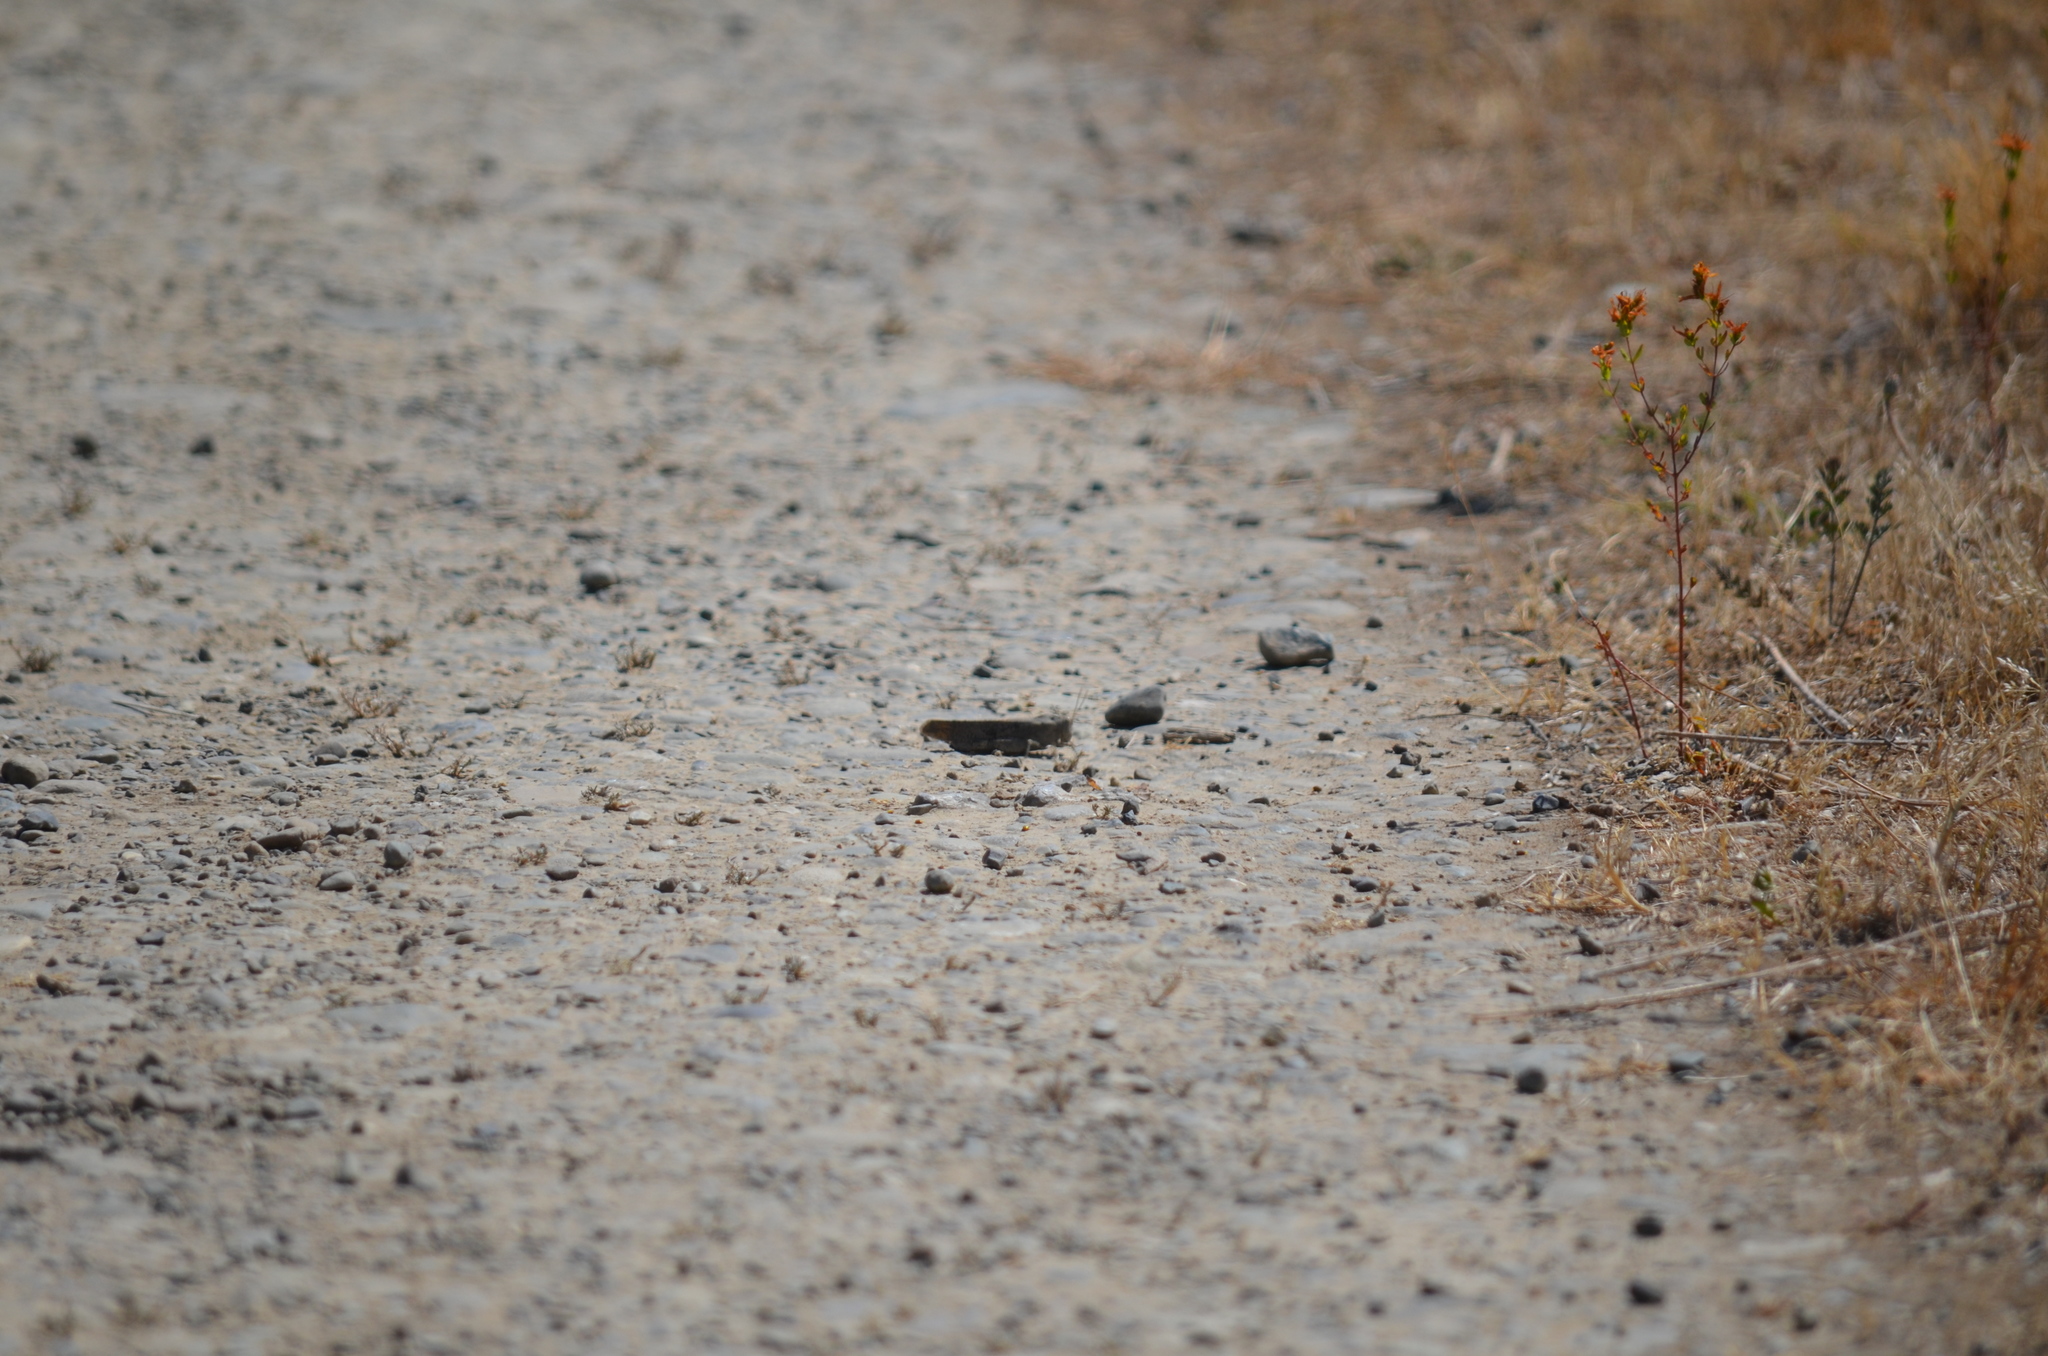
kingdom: Animalia
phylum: Arthropoda
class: Insecta
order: Orthoptera
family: Acrididae
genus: Dissosteira
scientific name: Dissosteira carolina
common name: Carolina grasshopper
